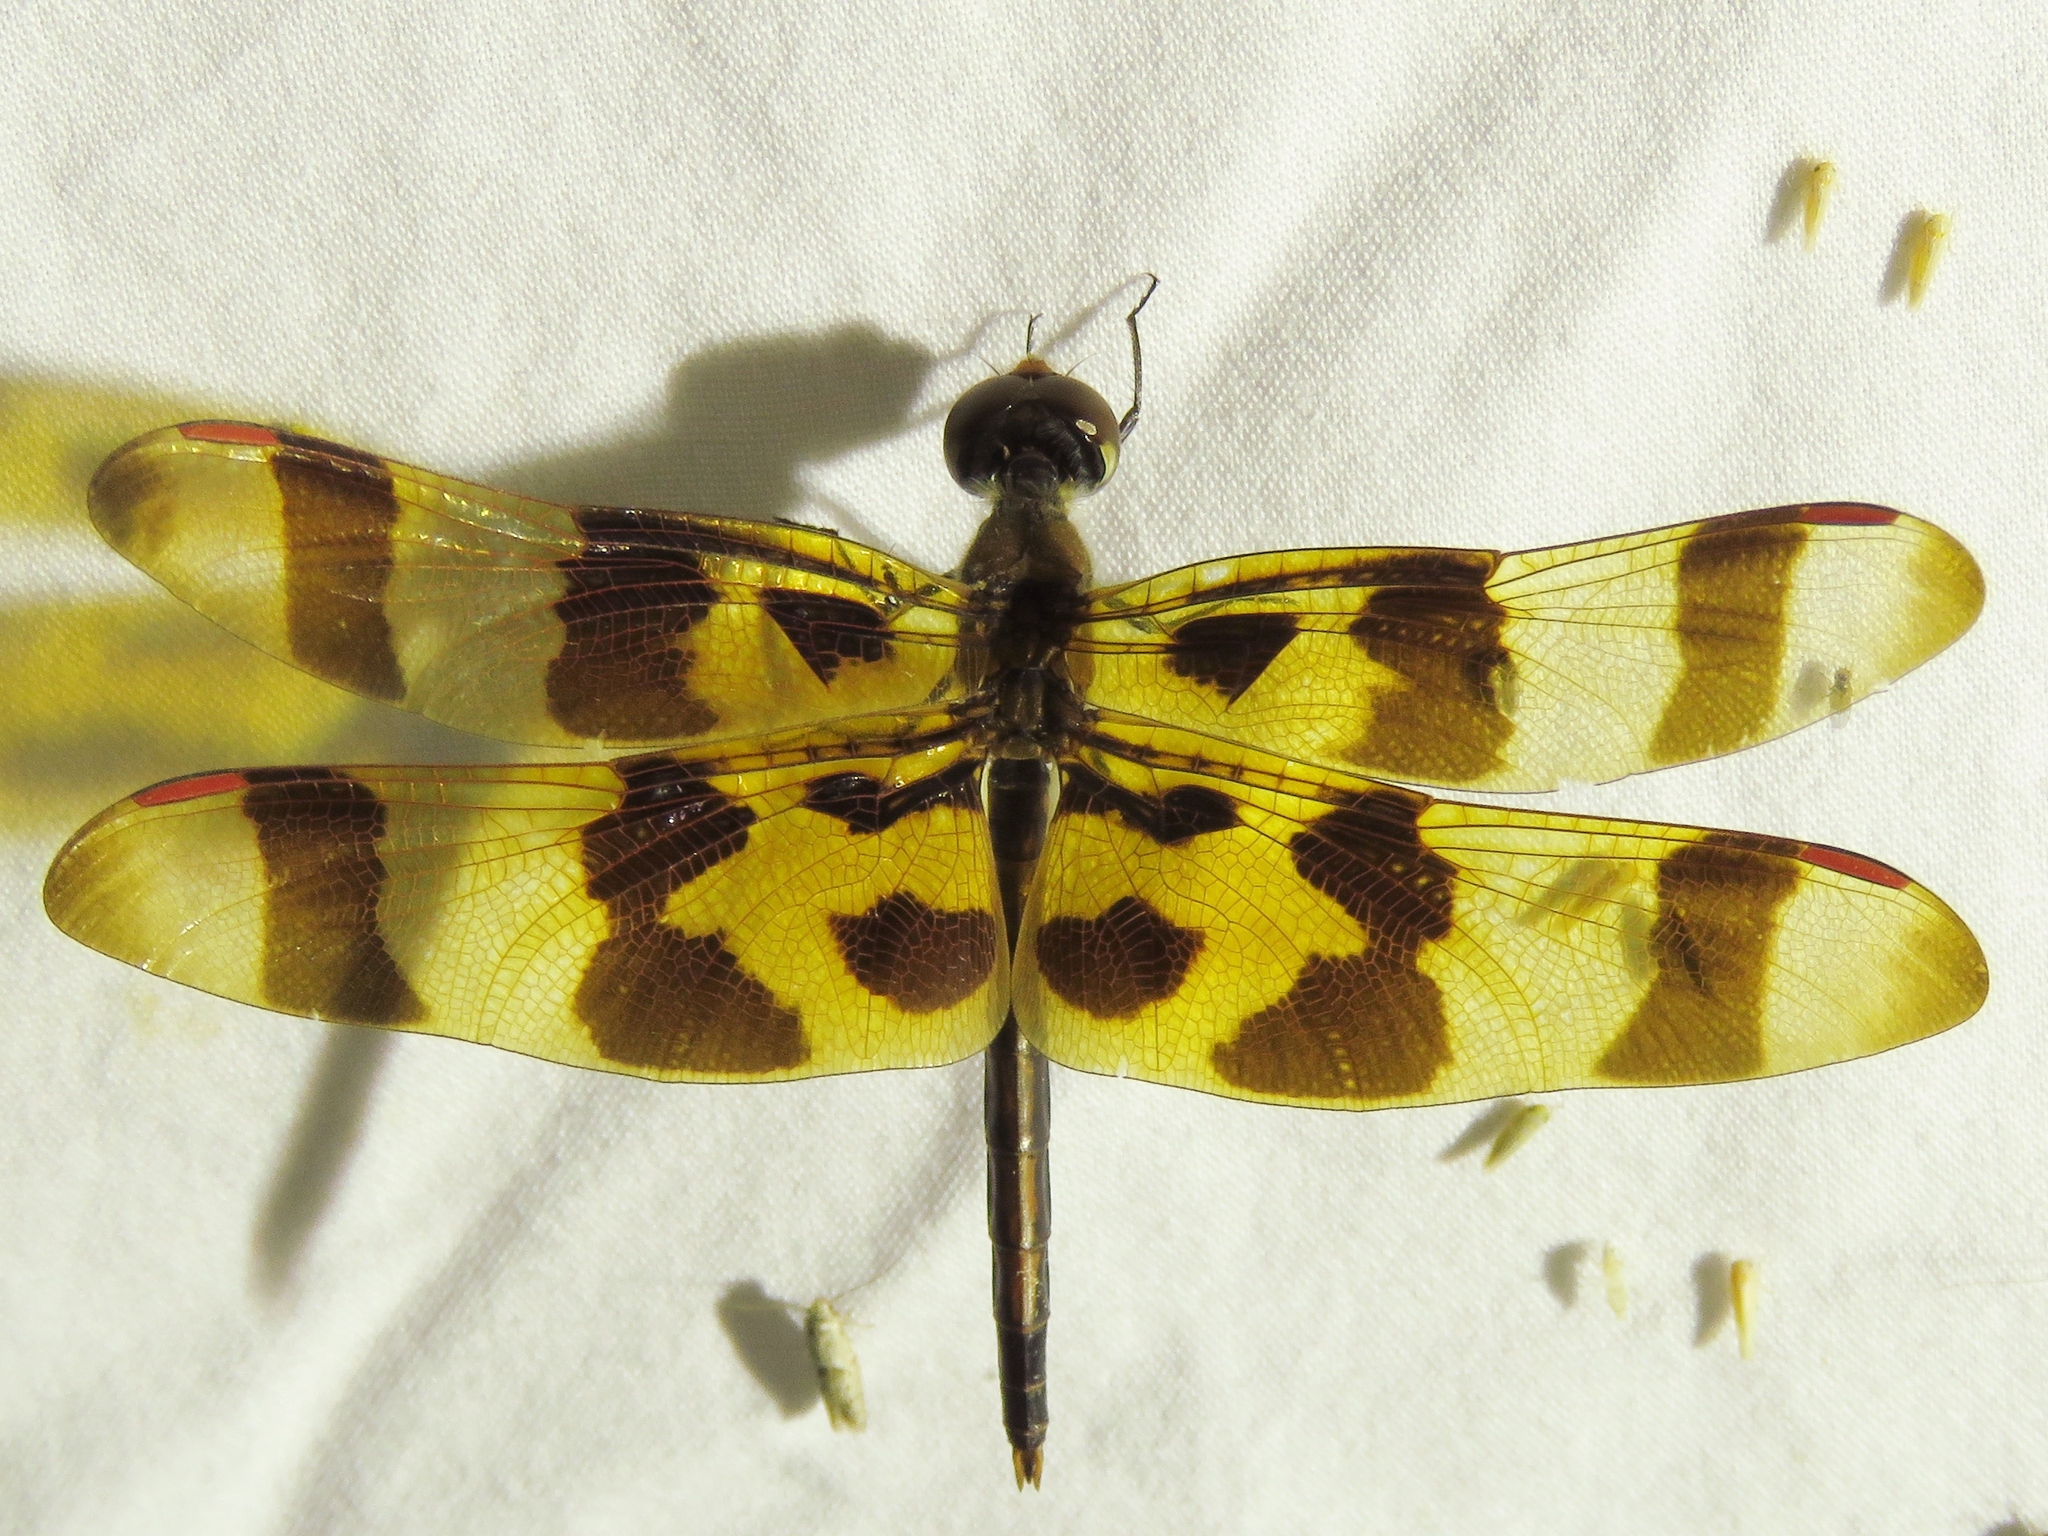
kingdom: Animalia
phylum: Arthropoda
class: Insecta
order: Odonata
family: Libellulidae
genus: Celithemis
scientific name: Celithemis eponina
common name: Halloween pennant
